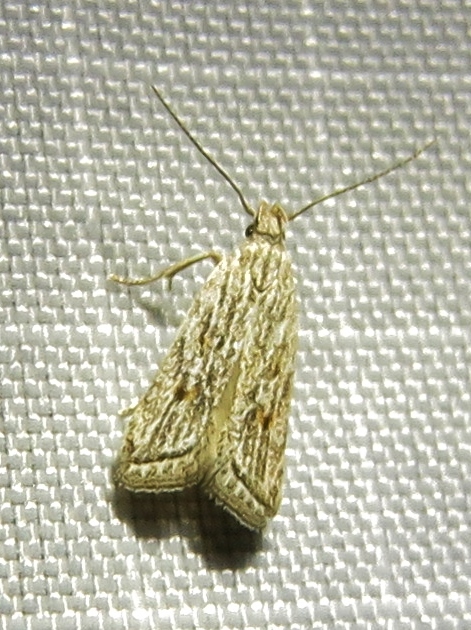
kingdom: Animalia
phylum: Arthropoda
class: Insecta
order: Lepidoptera
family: Gelechiidae
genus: Helcystogramma
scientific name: Helcystogramma chambersella
